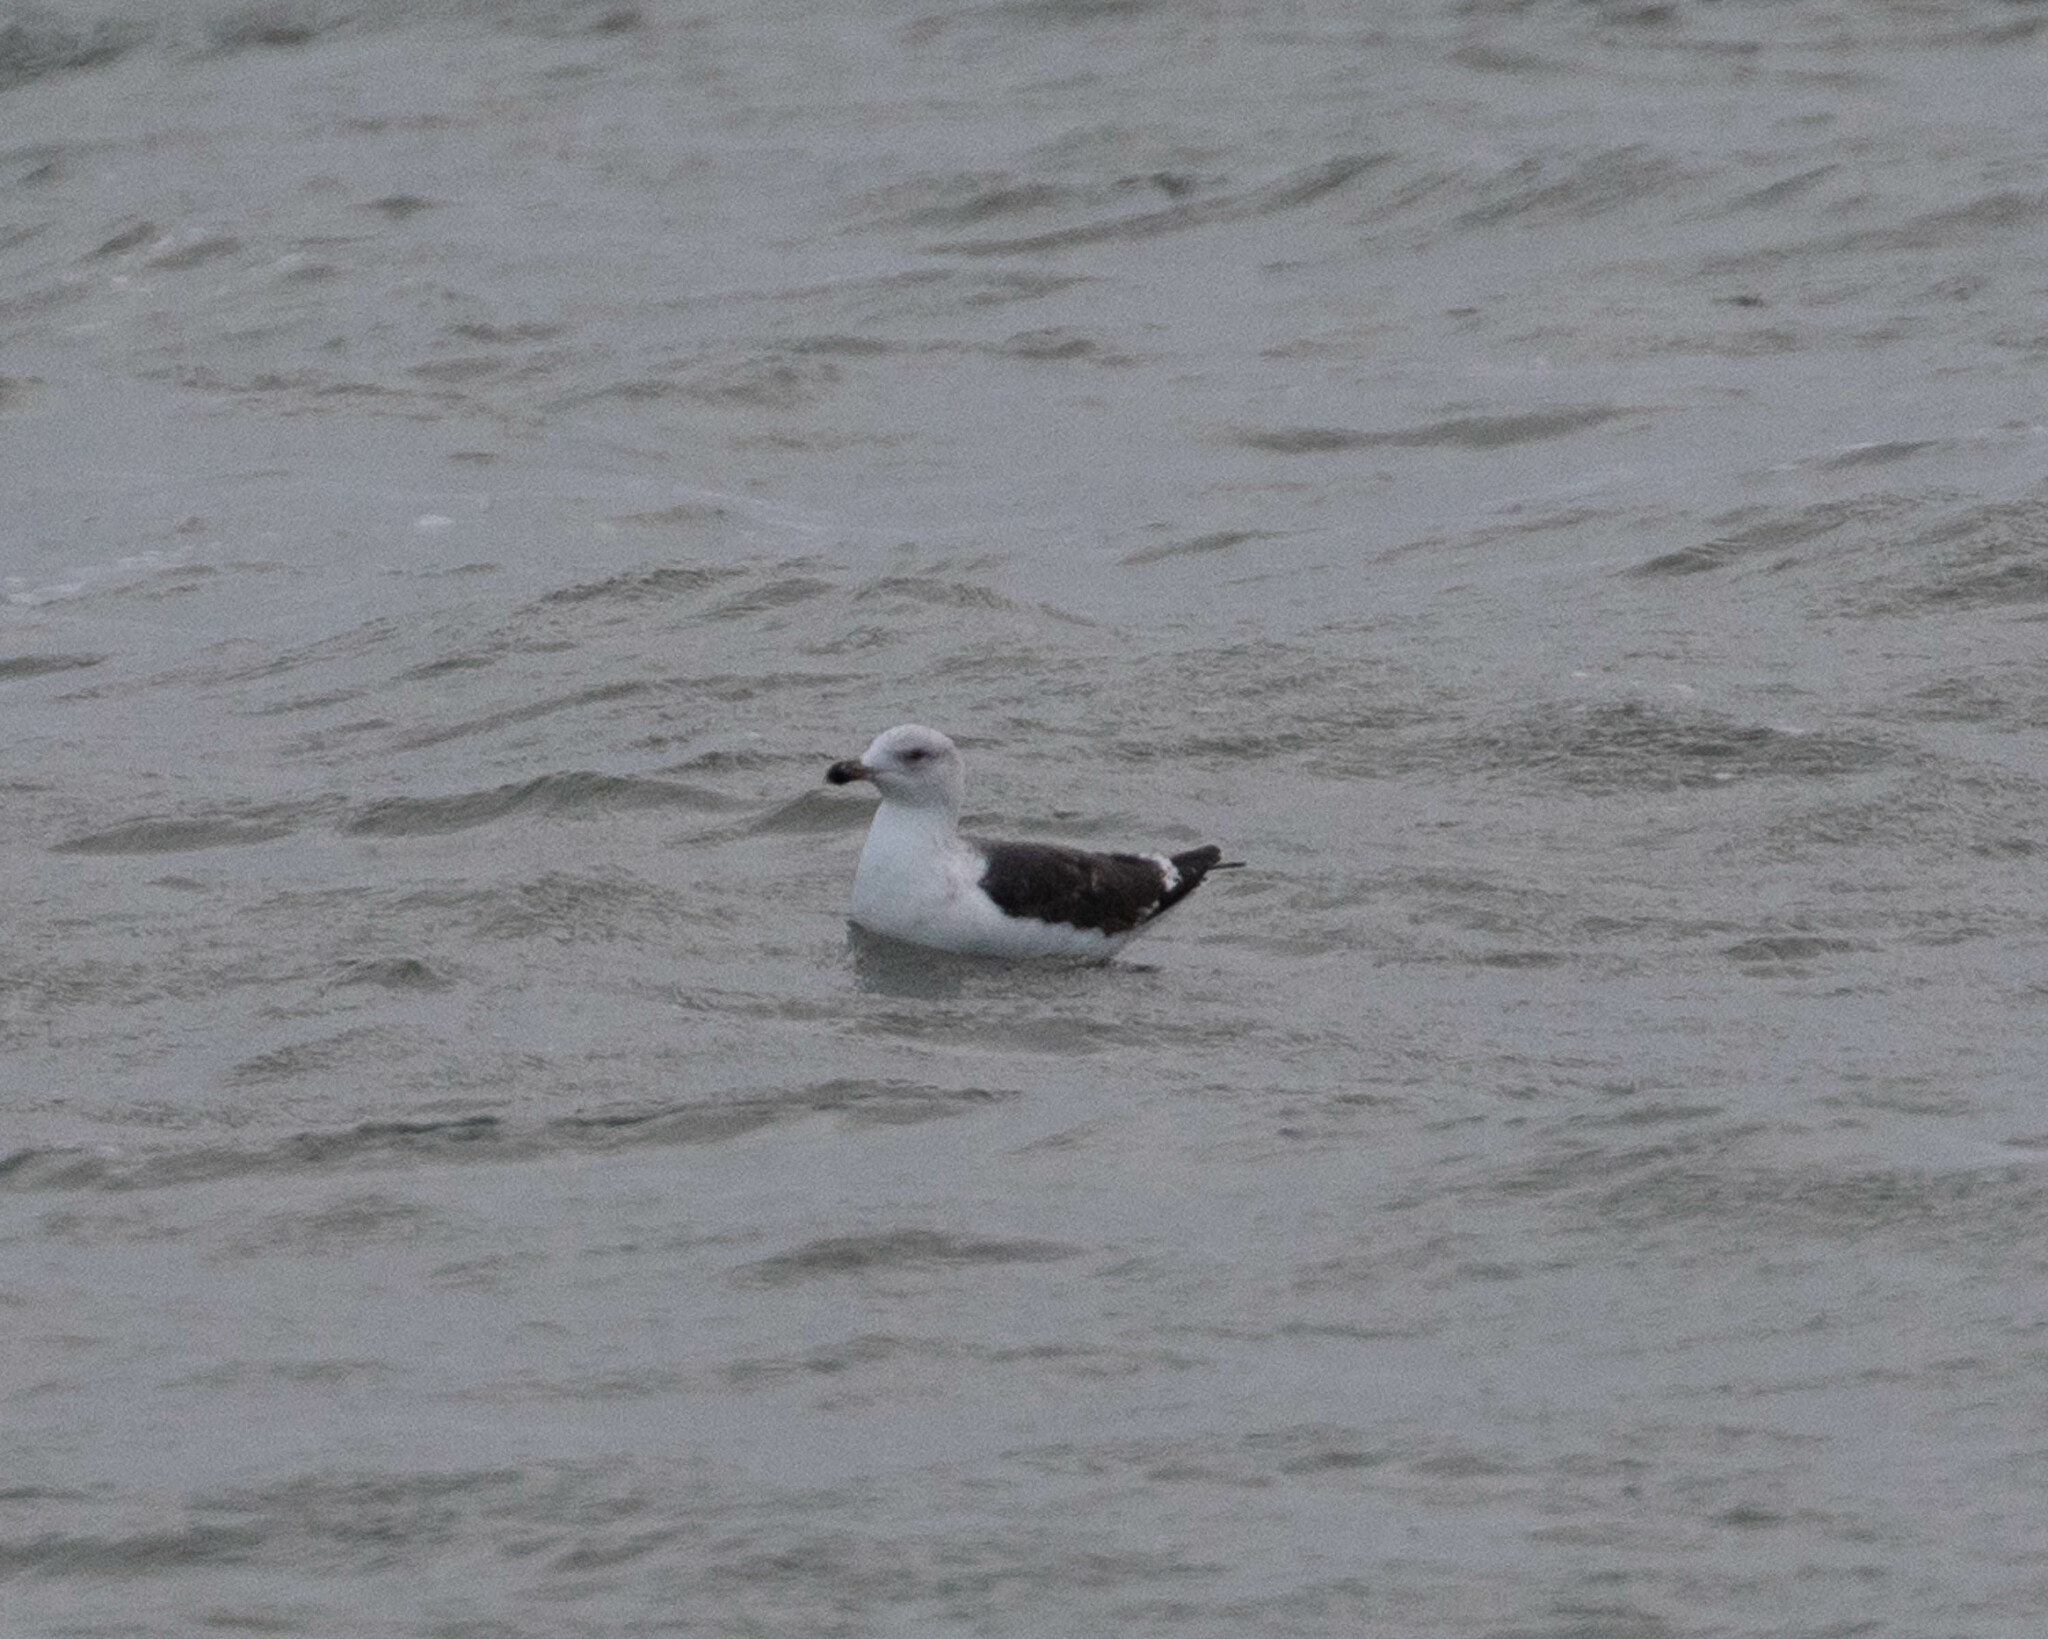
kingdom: Animalia
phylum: Chordata
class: Aves
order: Charadriiformes
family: Laridae
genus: Larus
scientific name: Larus marinus
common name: Great black-backed gull
